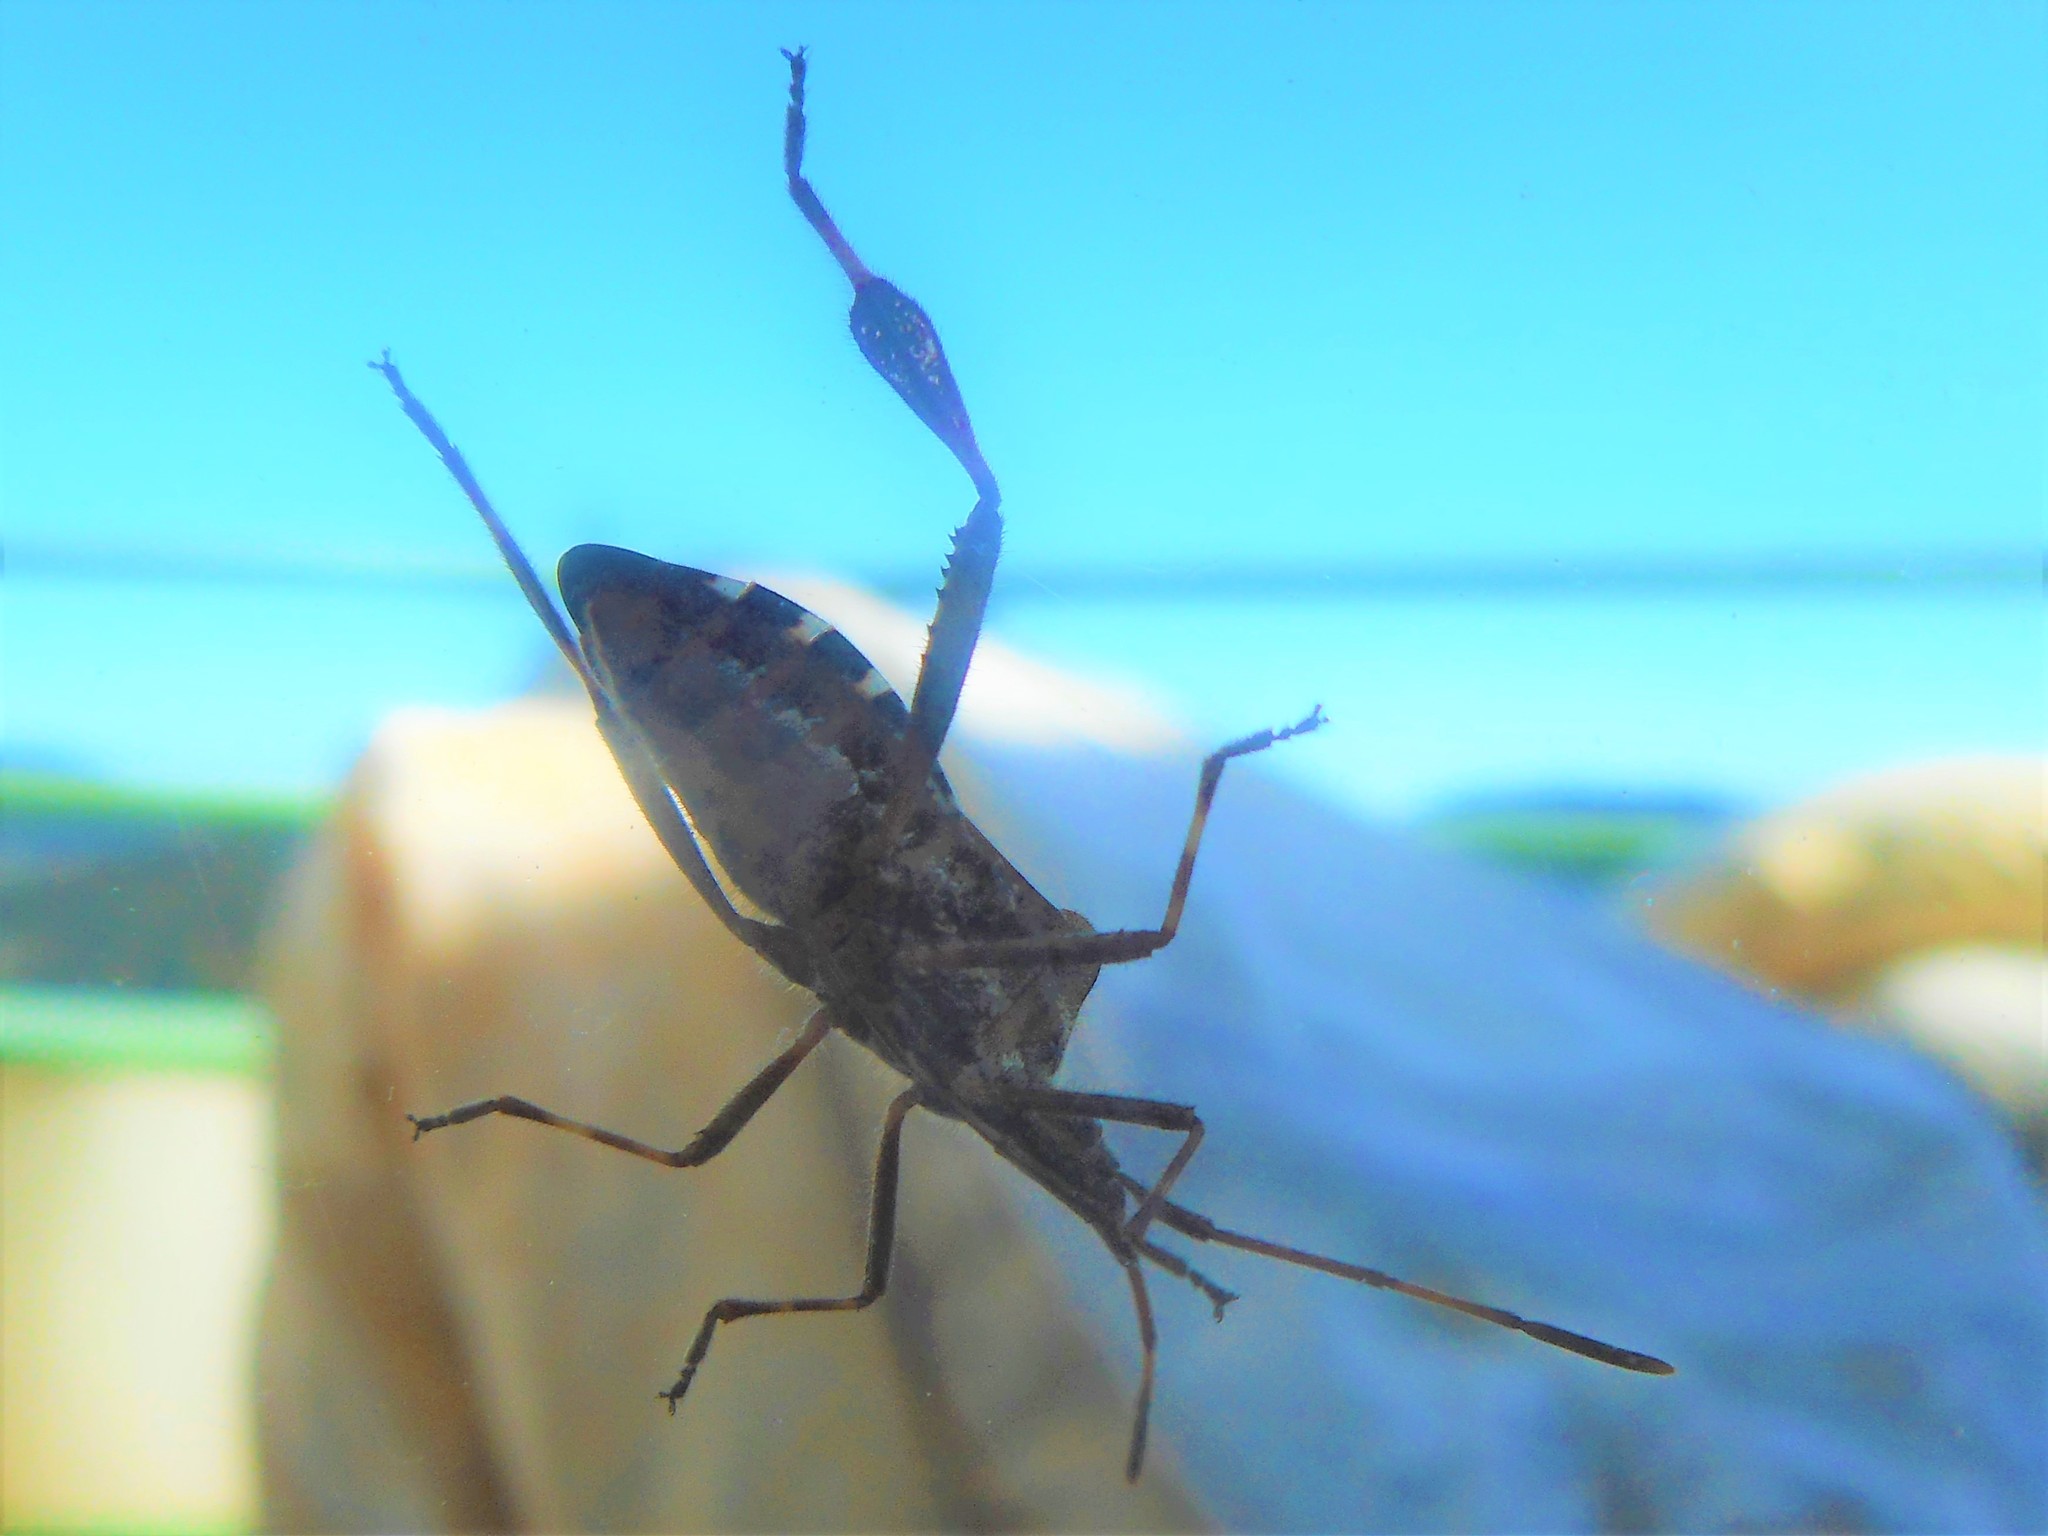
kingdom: Animalia
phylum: Arthropoda
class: Insecta
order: Hemiptera
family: Coreidae
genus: Leptoglossus
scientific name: Leptoglossus occidentalis
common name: Western conifer-seed bug
